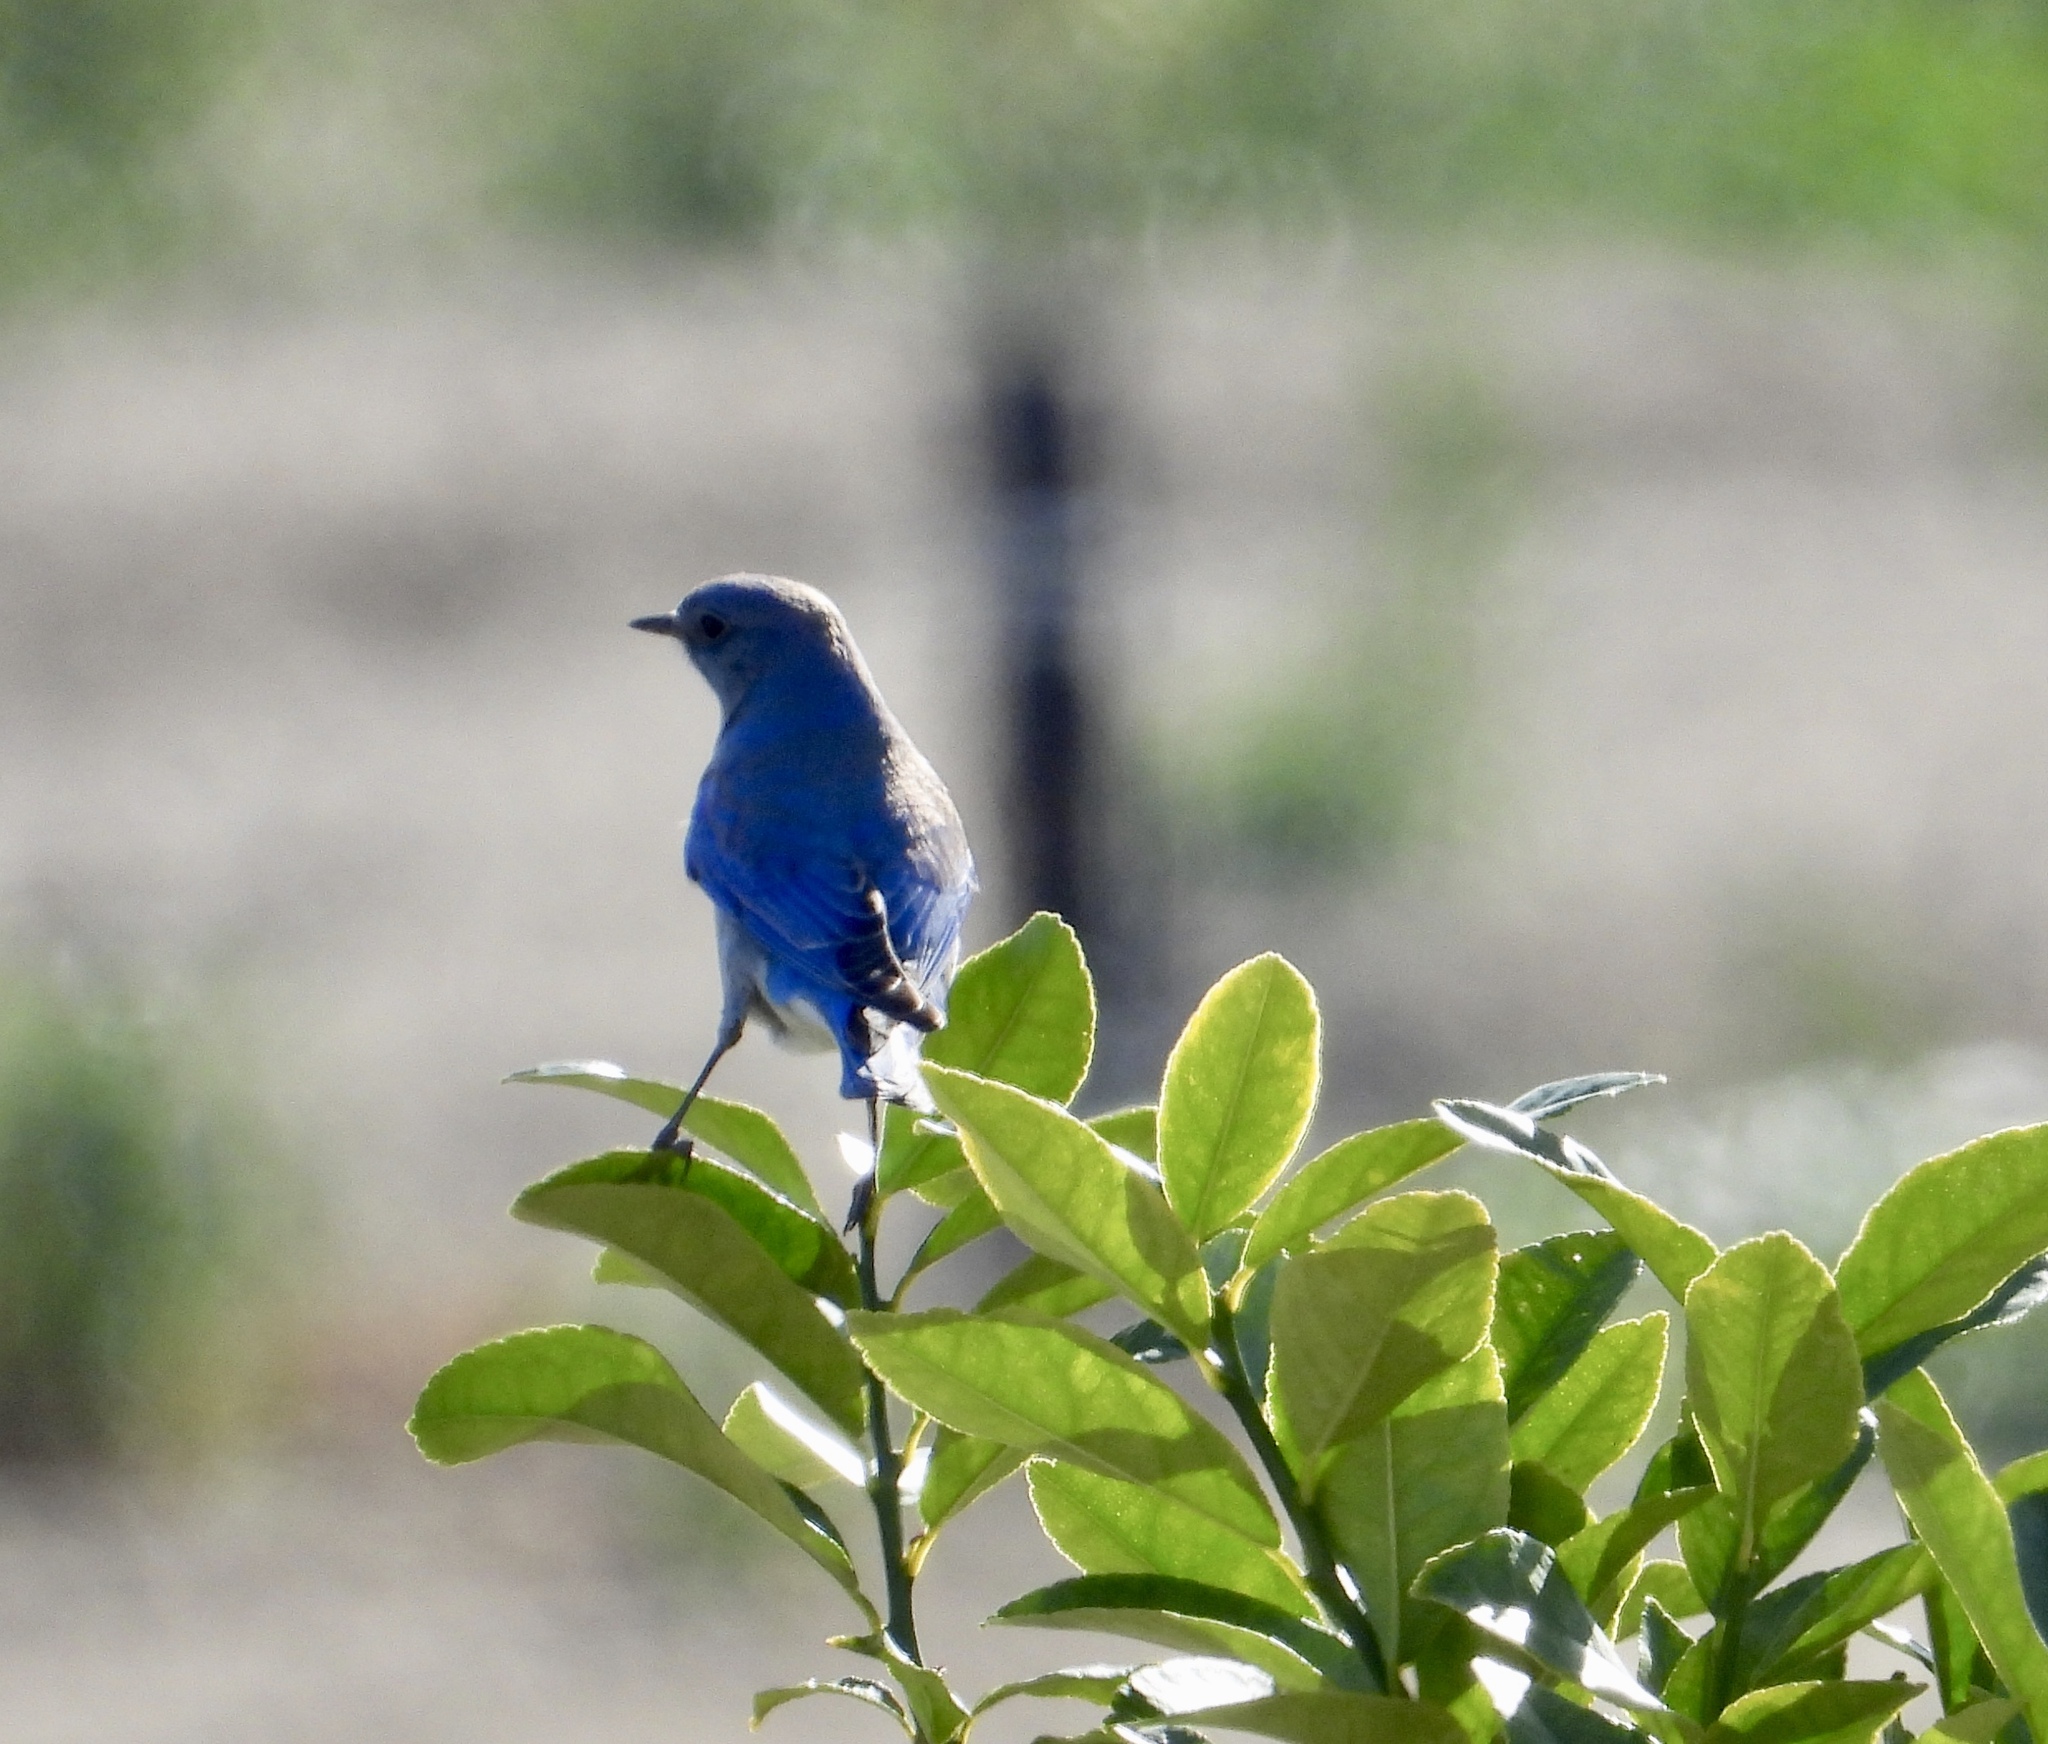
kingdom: Animalia
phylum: Chordata
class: Aves
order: Passeriformes
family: Turdidae
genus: Sialia
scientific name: Sialia currucoides
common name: Mountain bluebird
